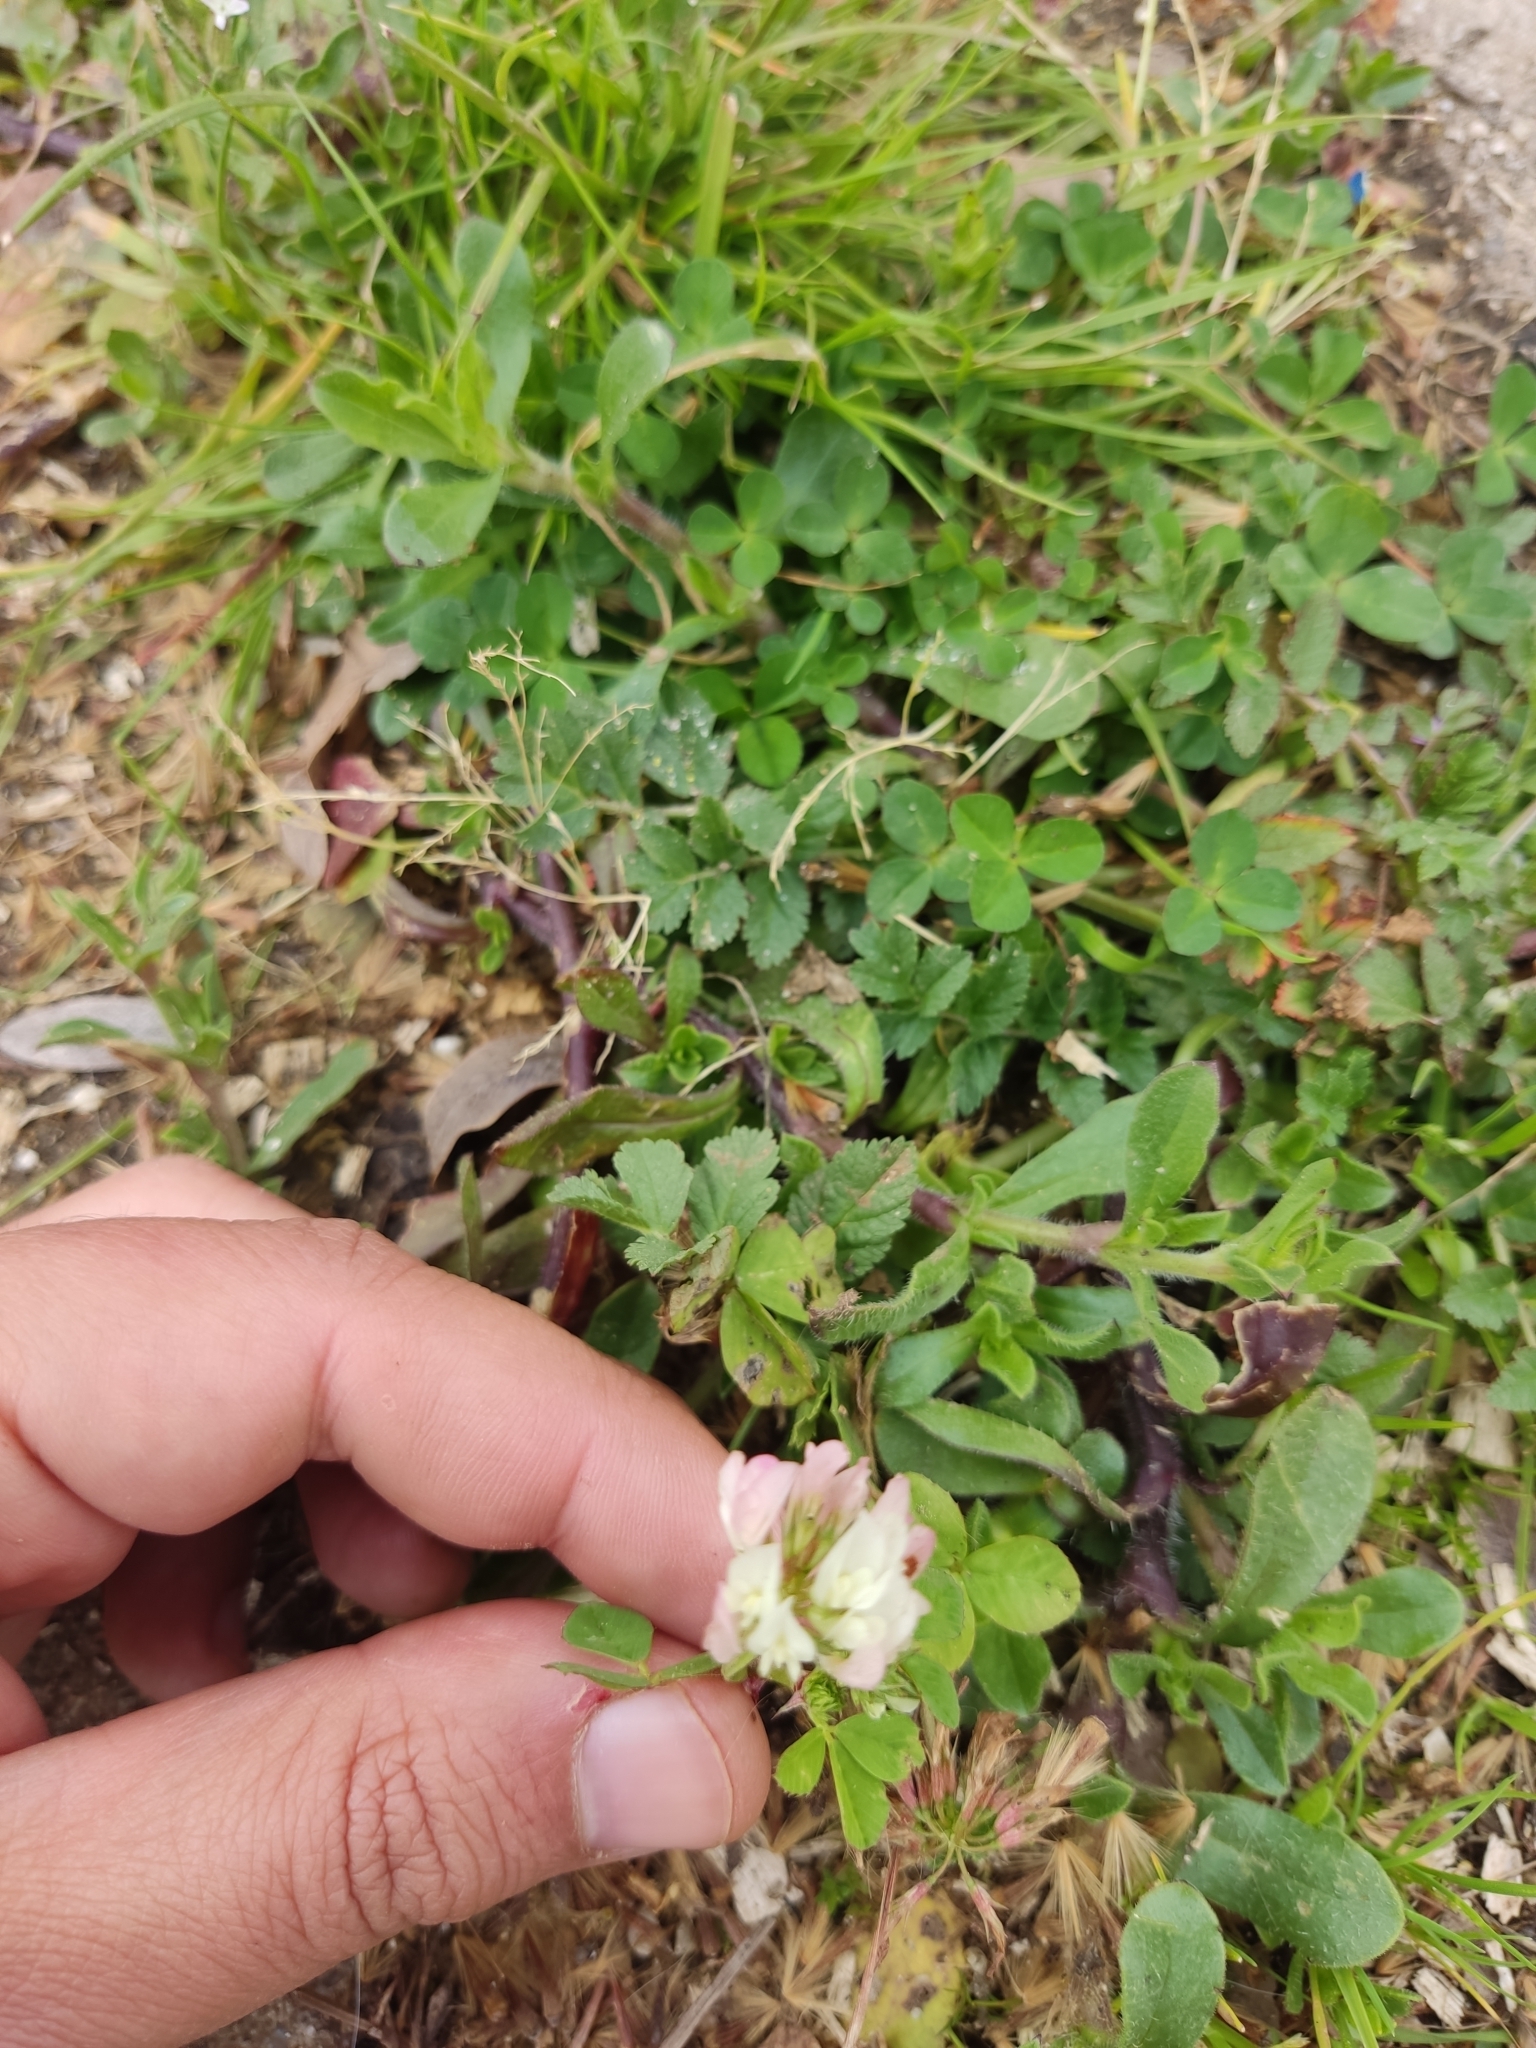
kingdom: Plantae
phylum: Tracheophyta
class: Magnoliopsida
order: Fabales
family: Fabaceae
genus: Trifolium
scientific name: Trifolium nigrescens
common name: Small white clover
